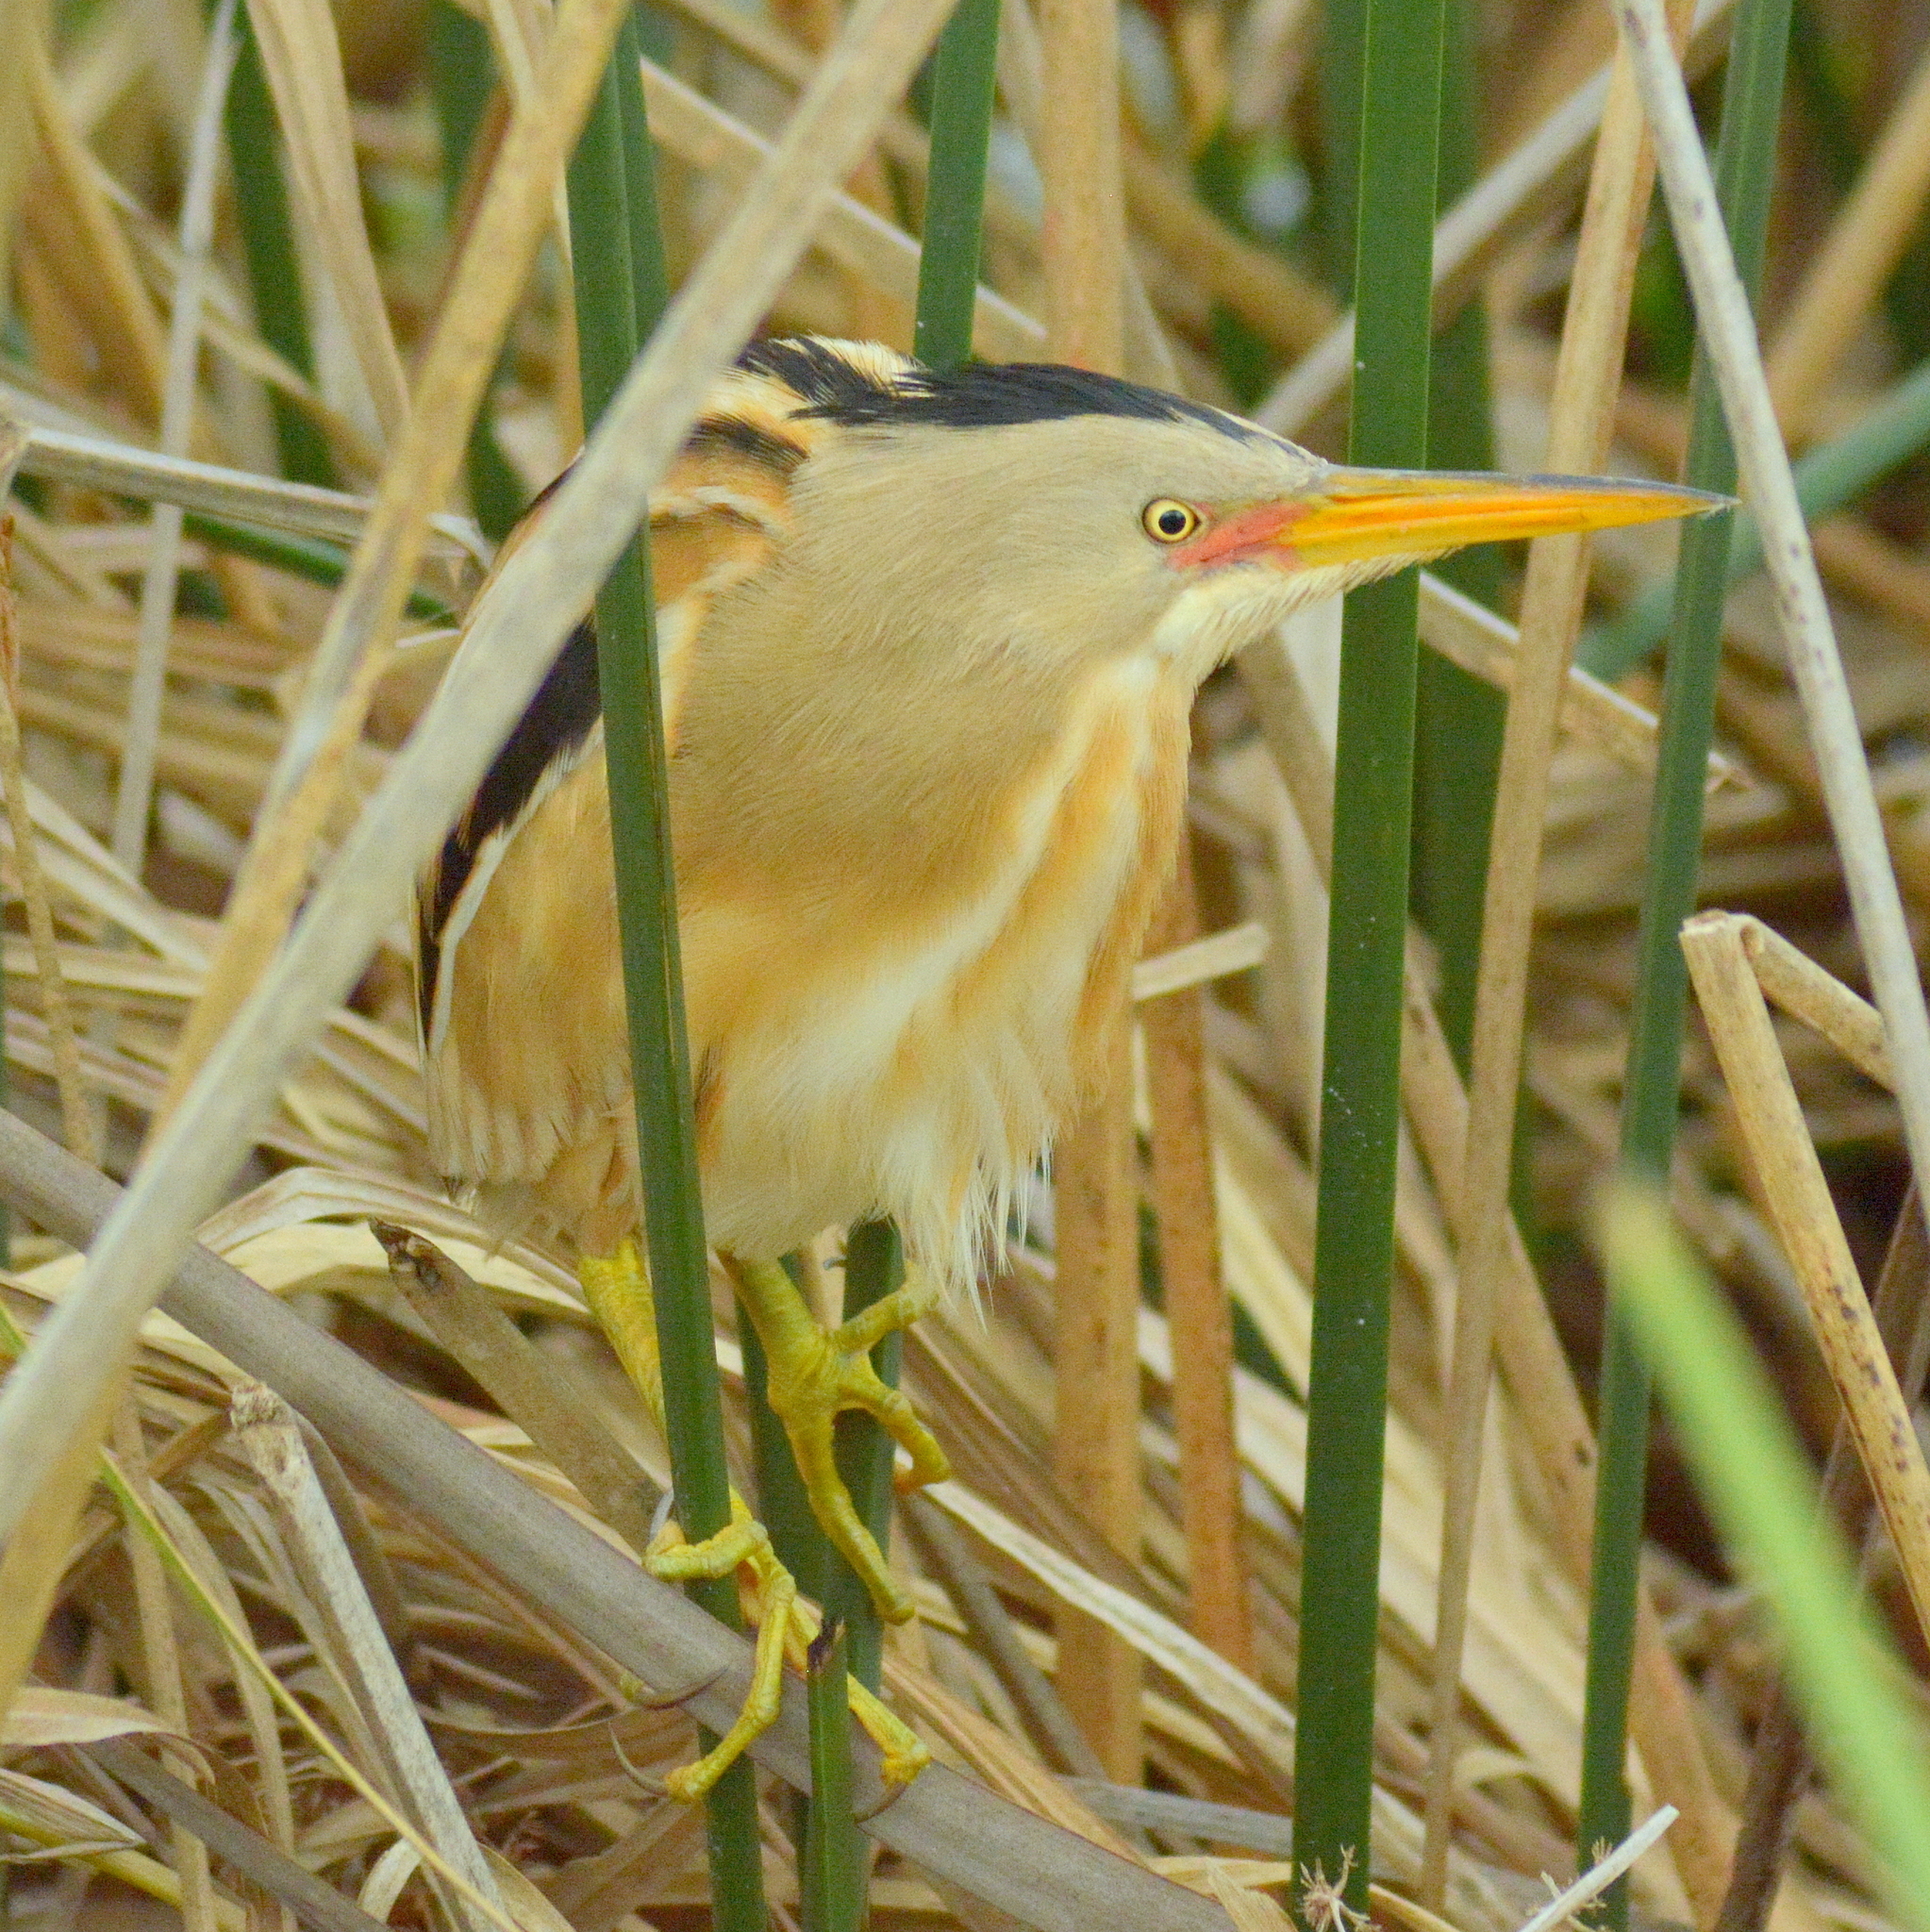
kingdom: Animalia
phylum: Chordata
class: Aves
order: Pelecaniformes
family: Ardeidae
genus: Ixobrychus
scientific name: Ixobrychus involucris
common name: Stripe-backed bittern
